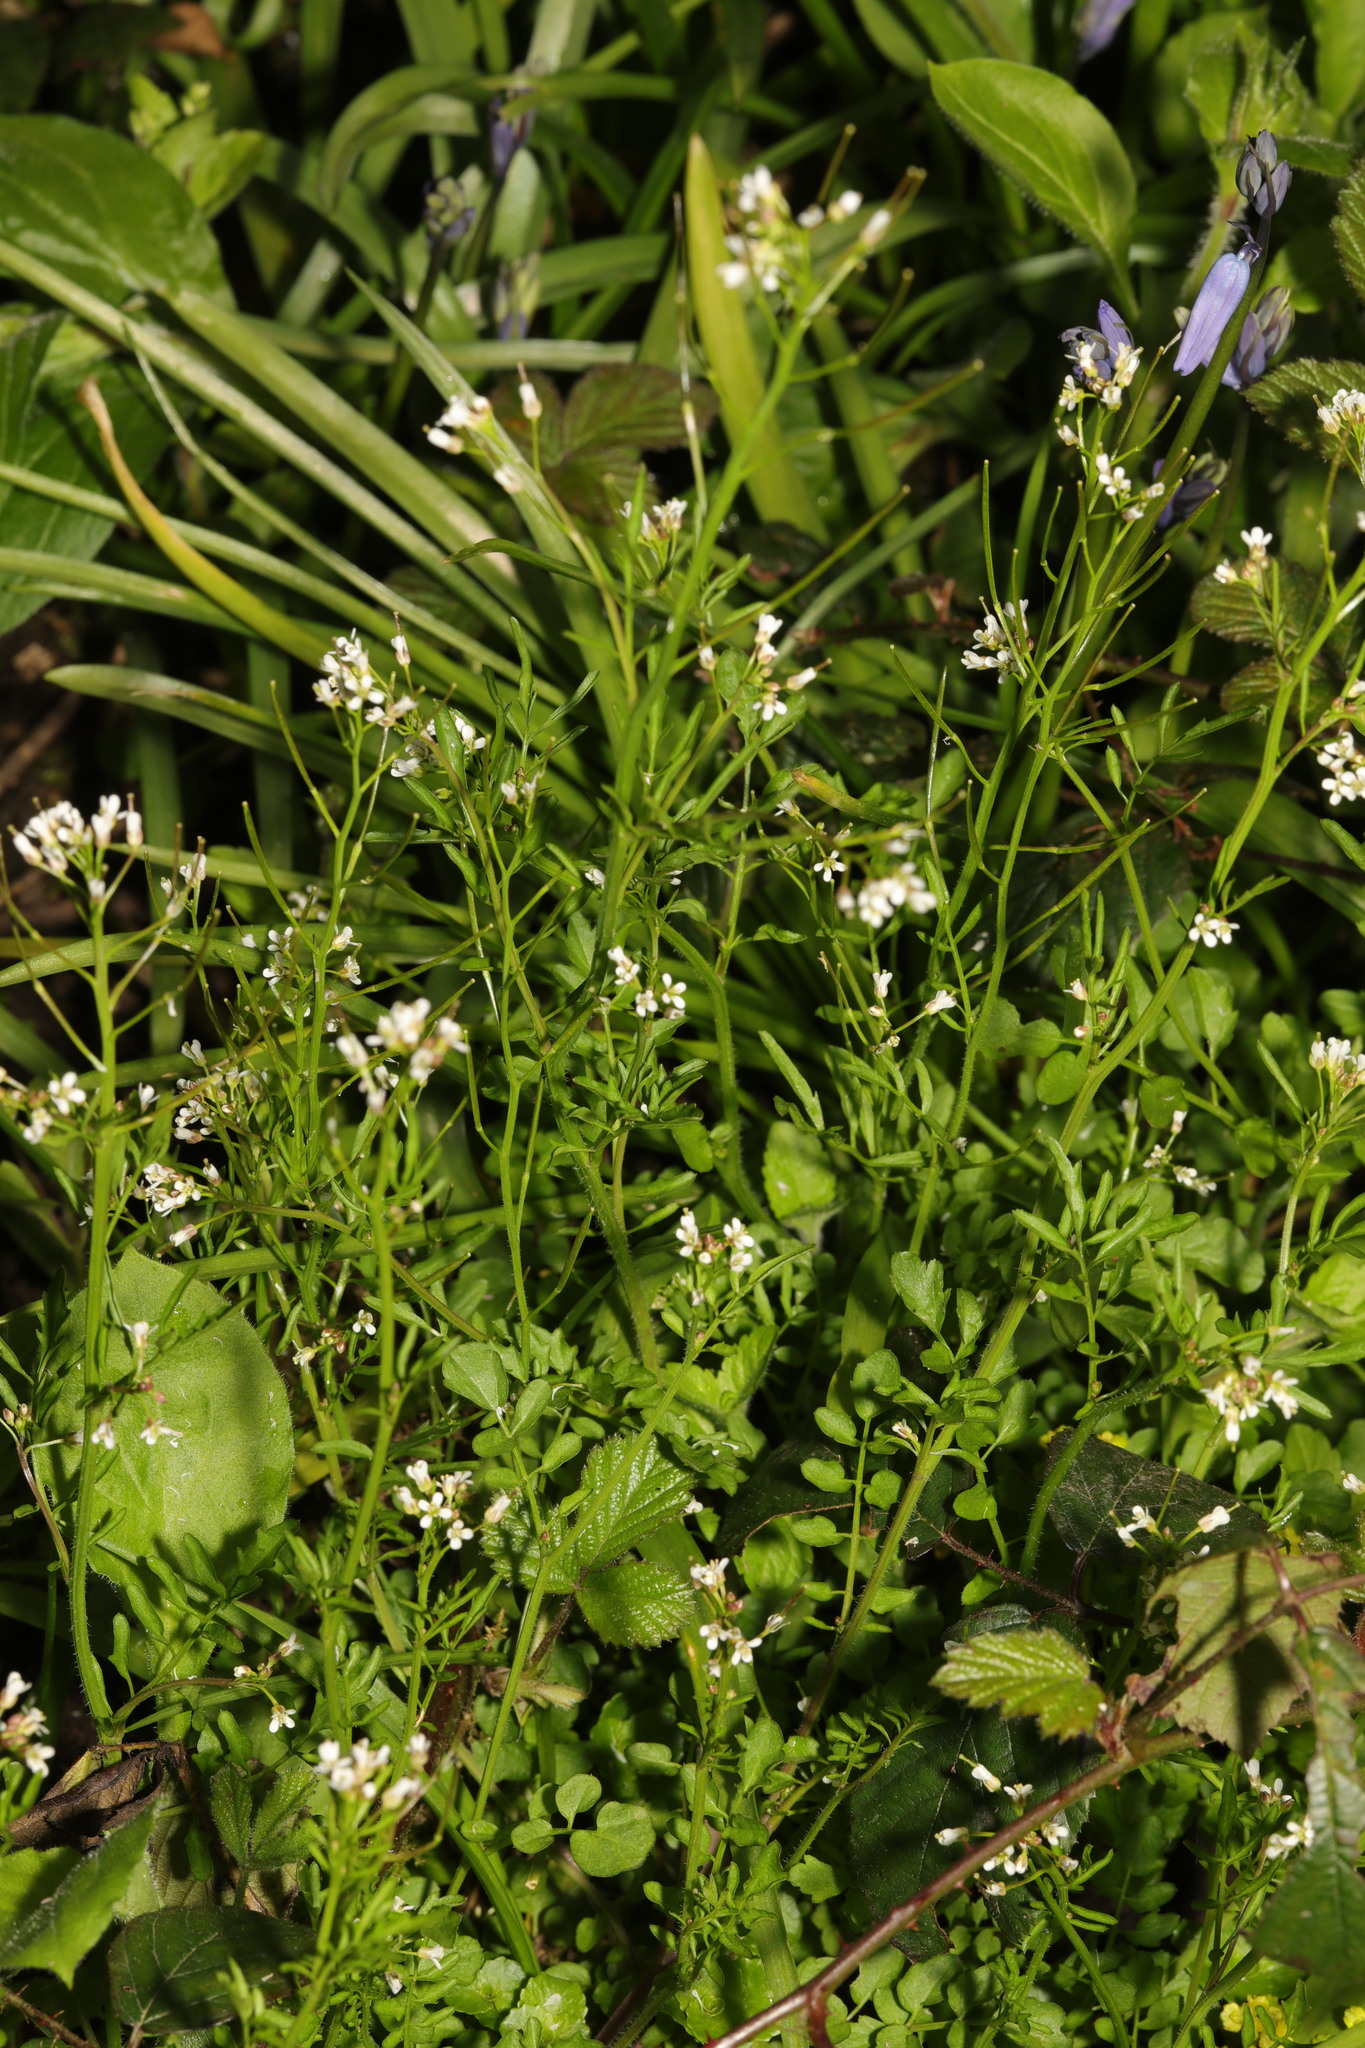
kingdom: Plantae
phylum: Tracheophyta
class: Magnoliopsida
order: Brassicales
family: Brassicaceae
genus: Cardamine
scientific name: Cardamine flexuosa
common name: Woodland bittercress
